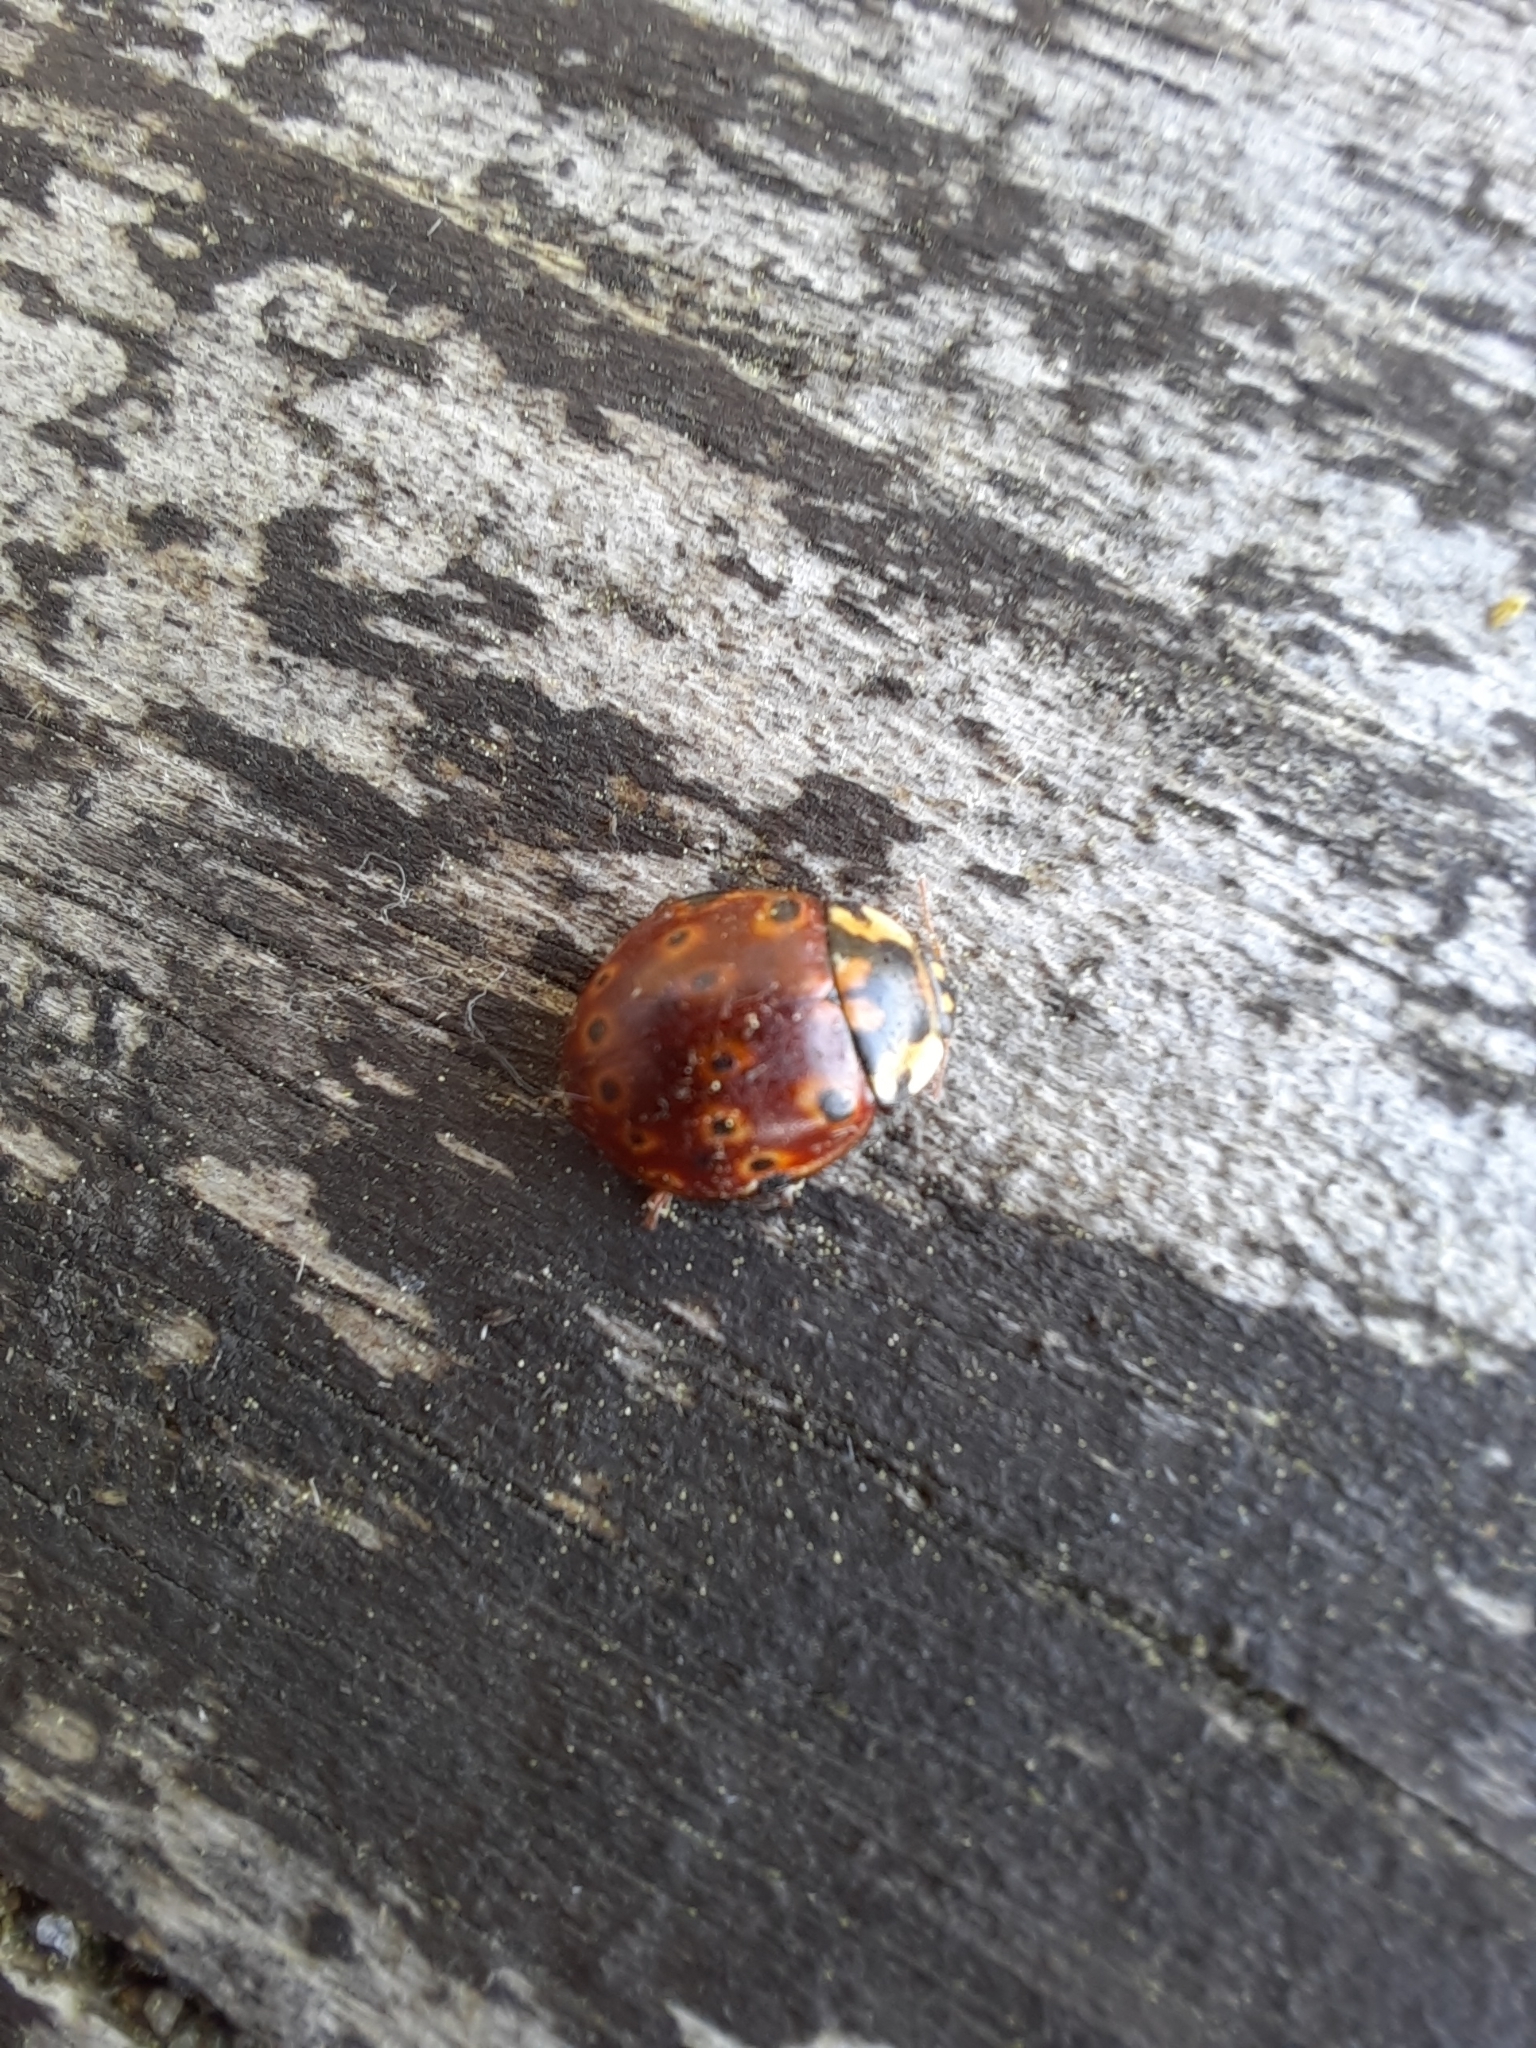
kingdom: Animalia
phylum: Arthropoda
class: Insecta
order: Coleoptera
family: Coccinellidae
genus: Anatis
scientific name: Anatis mali
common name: Eye-spotted lady beetle
